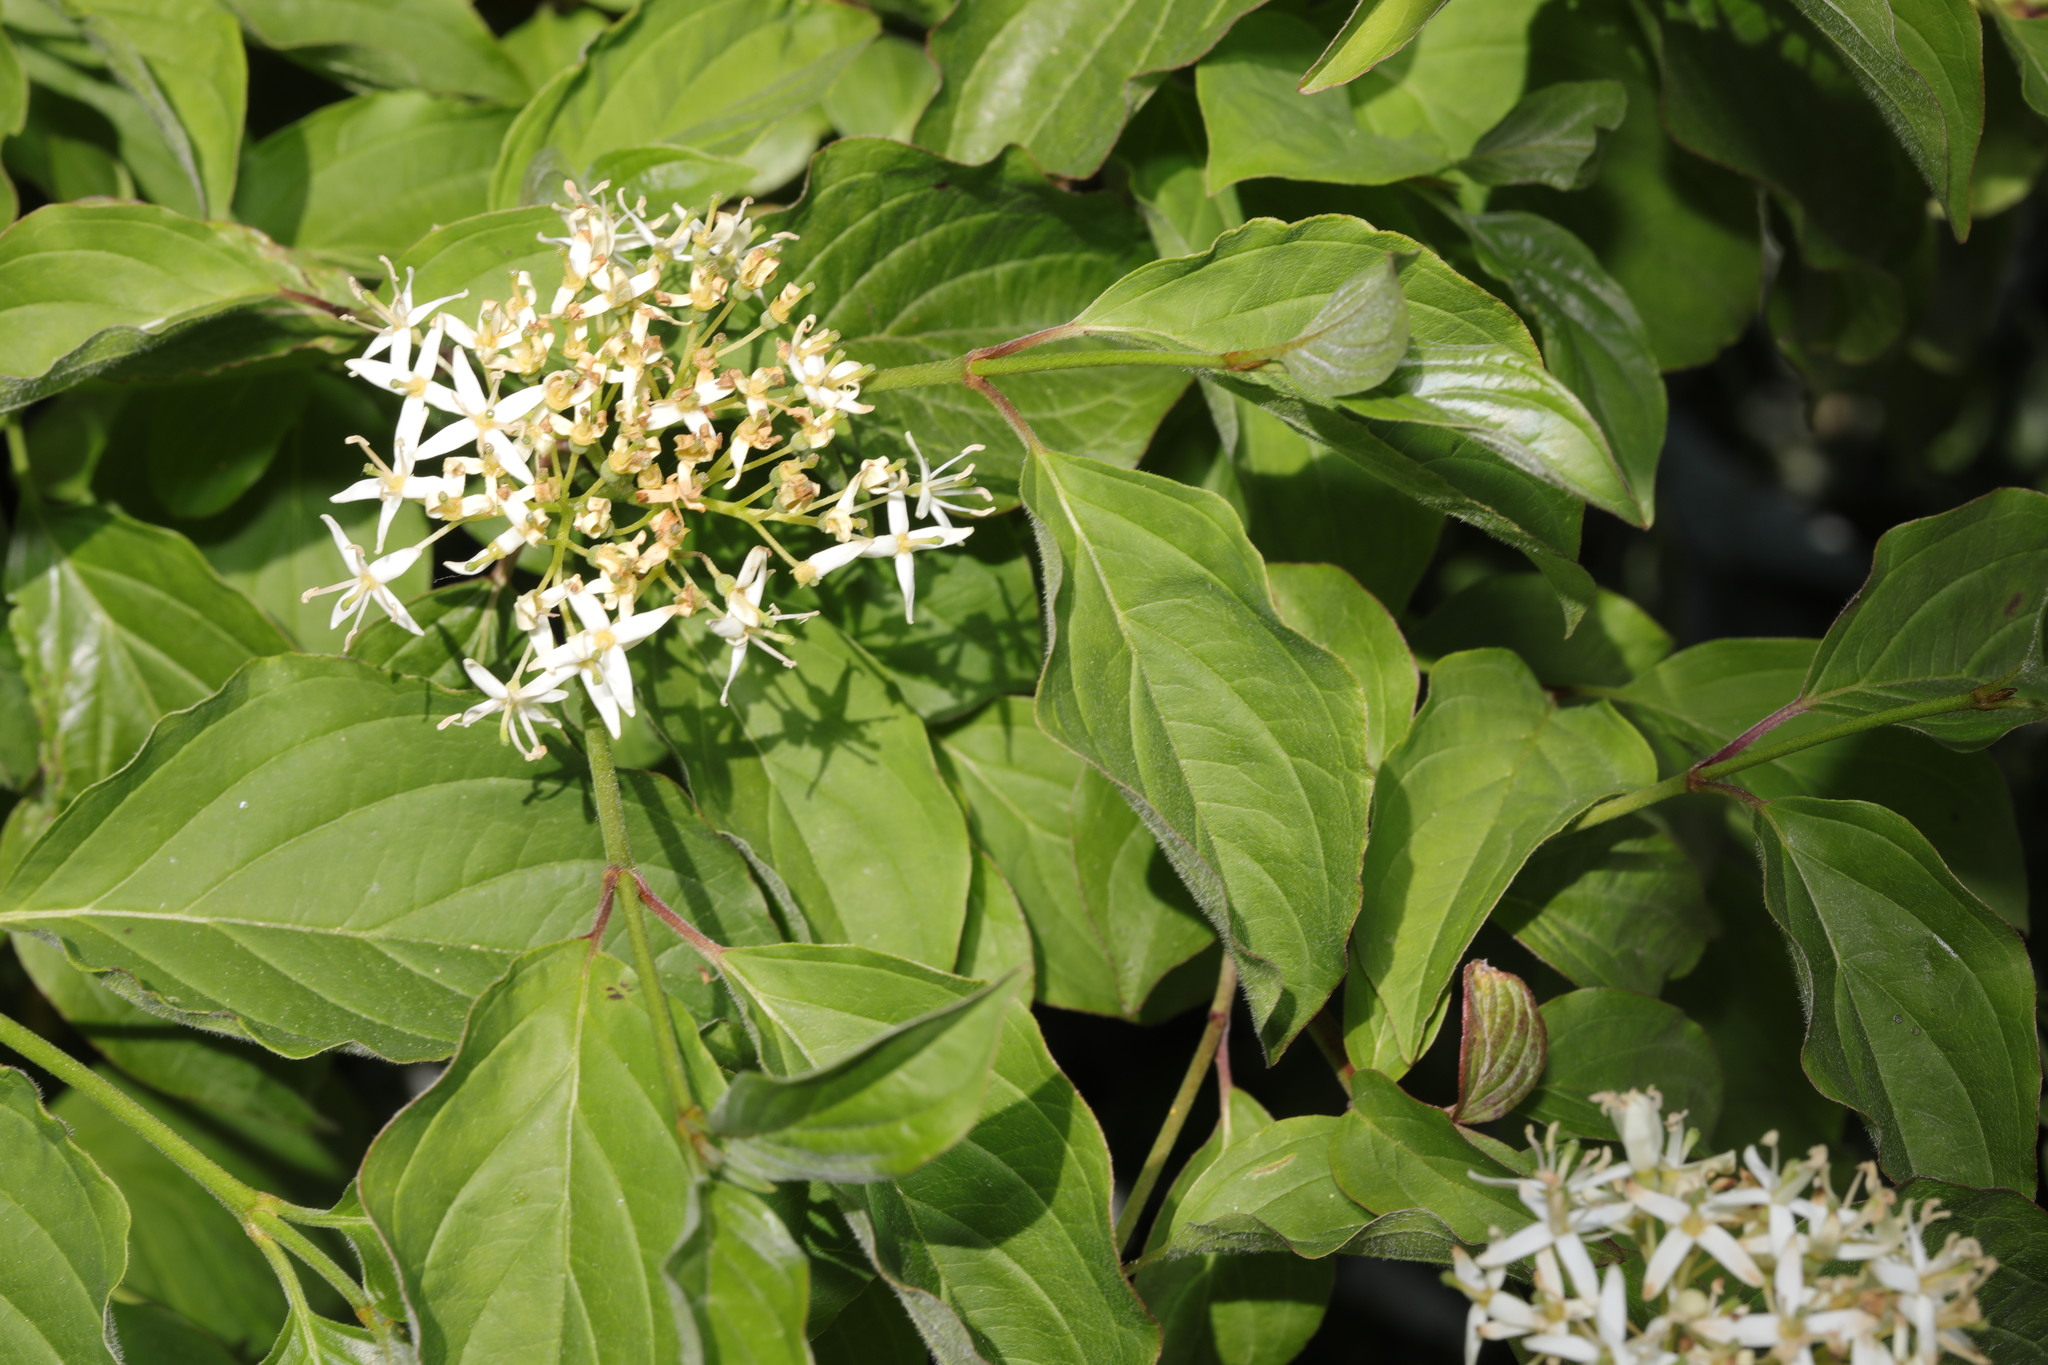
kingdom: Plantae
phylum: Tracheophyta
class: Magnoliopsida
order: Cornales
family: Cornaceae
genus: Cornus
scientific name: Cornus sanguinea
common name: Dogwood
